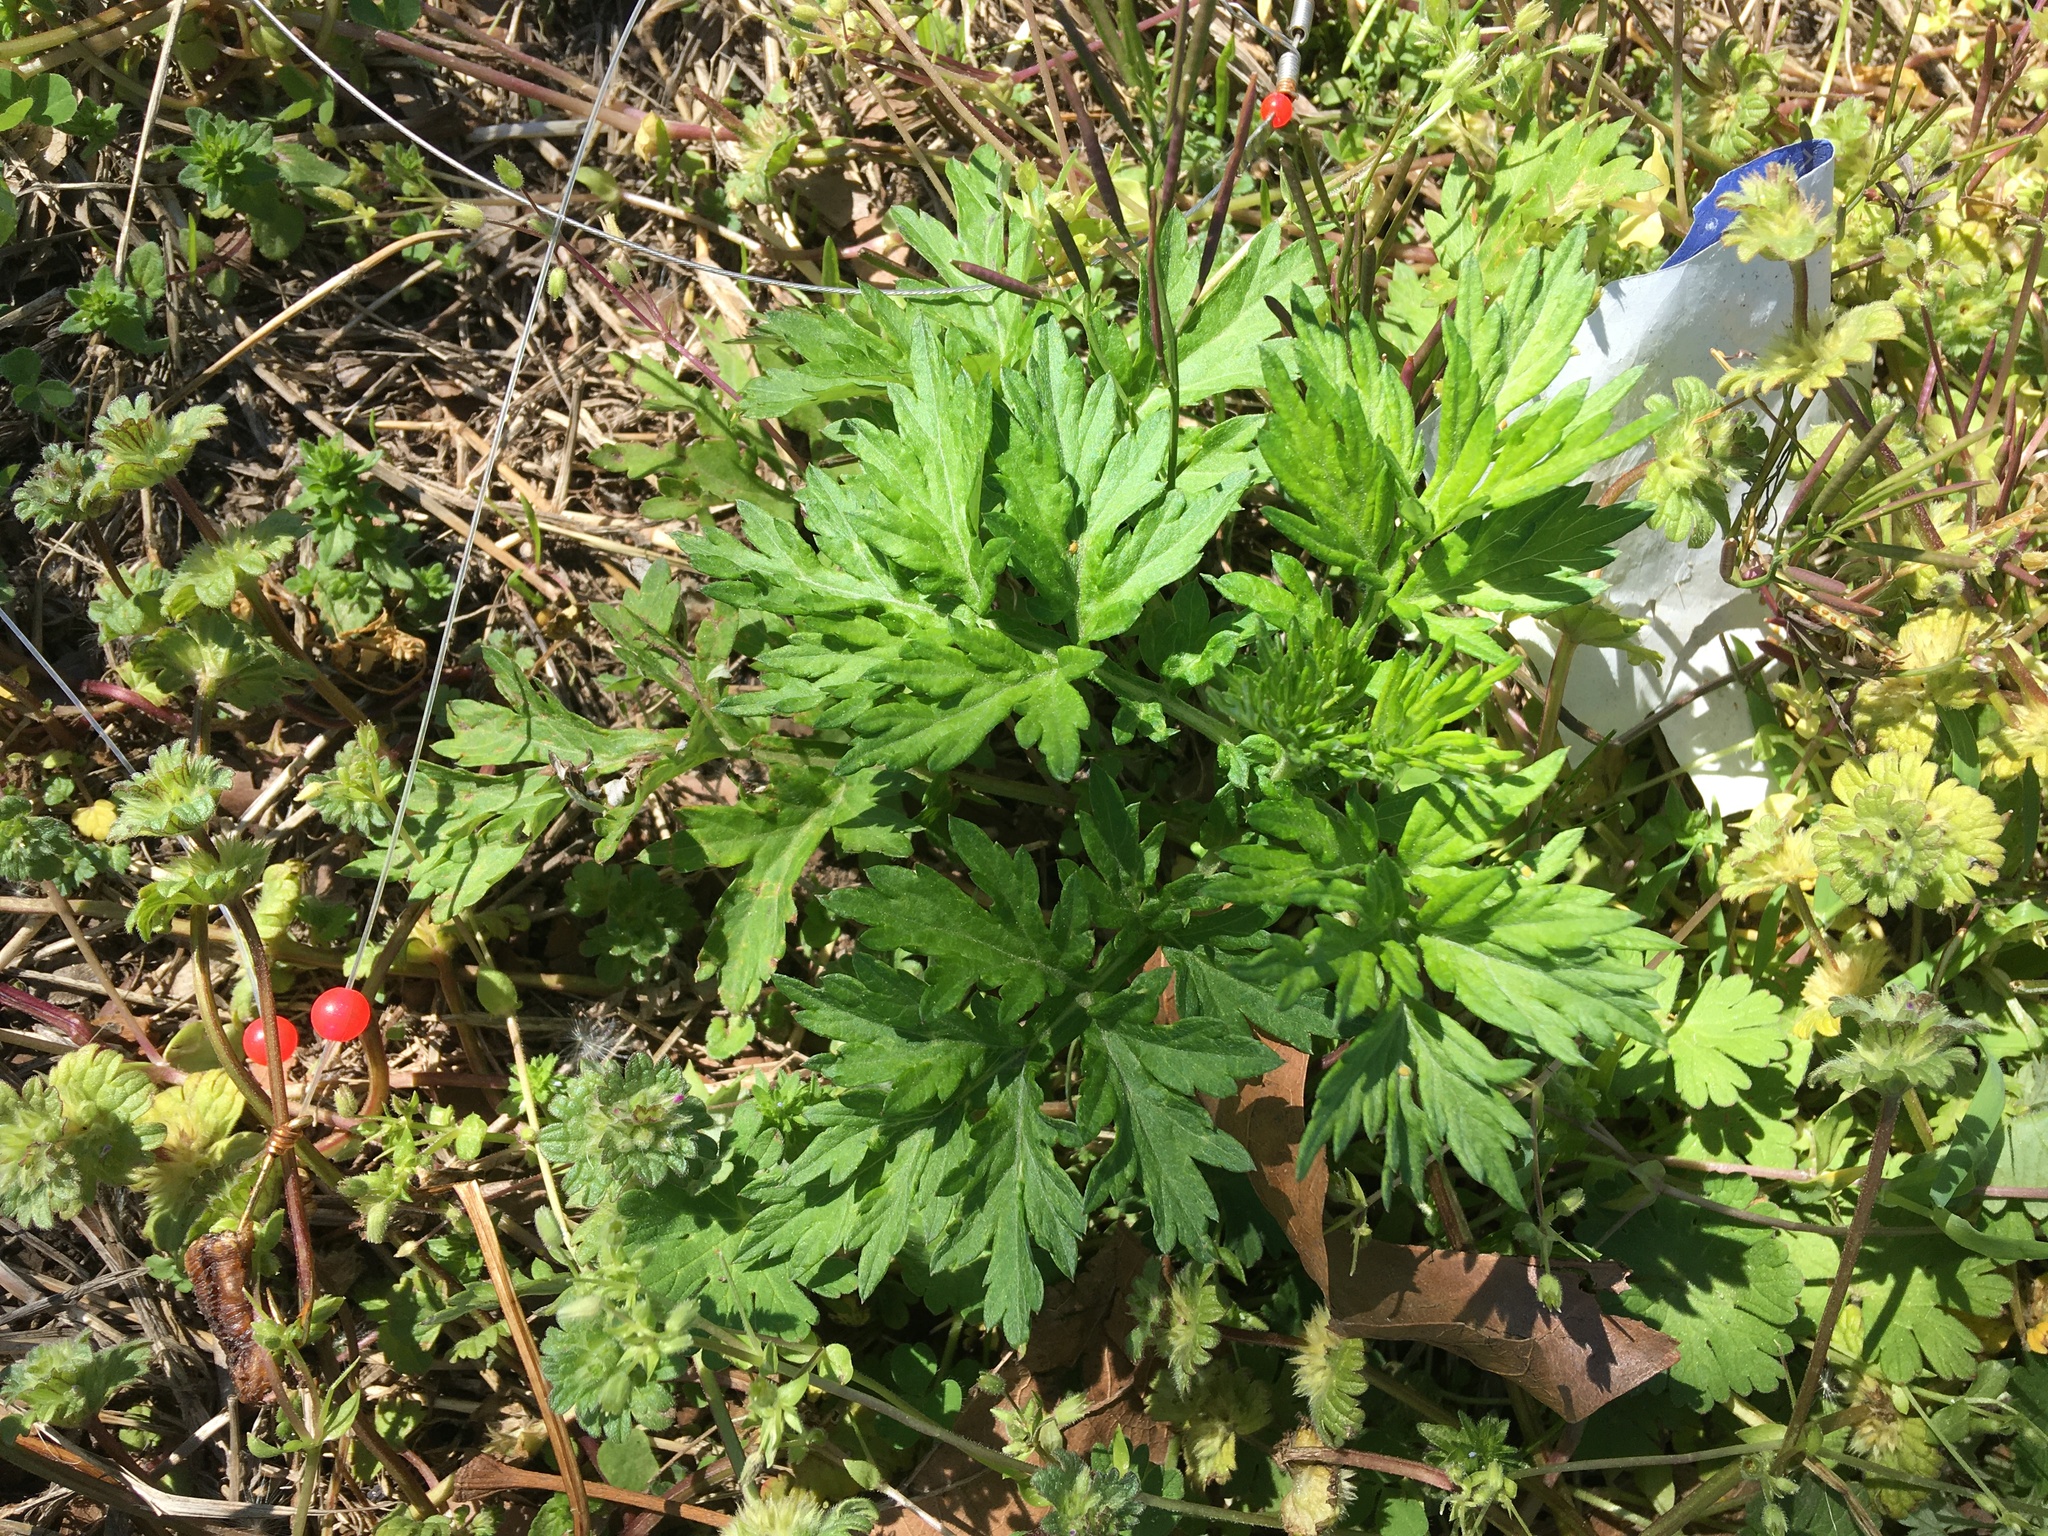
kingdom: Plantae
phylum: Tracheophyta
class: Magnoliopsida
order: Asterales
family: Asteraceae
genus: Artemisia
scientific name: Artemisia vulgaris
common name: Mugwort
